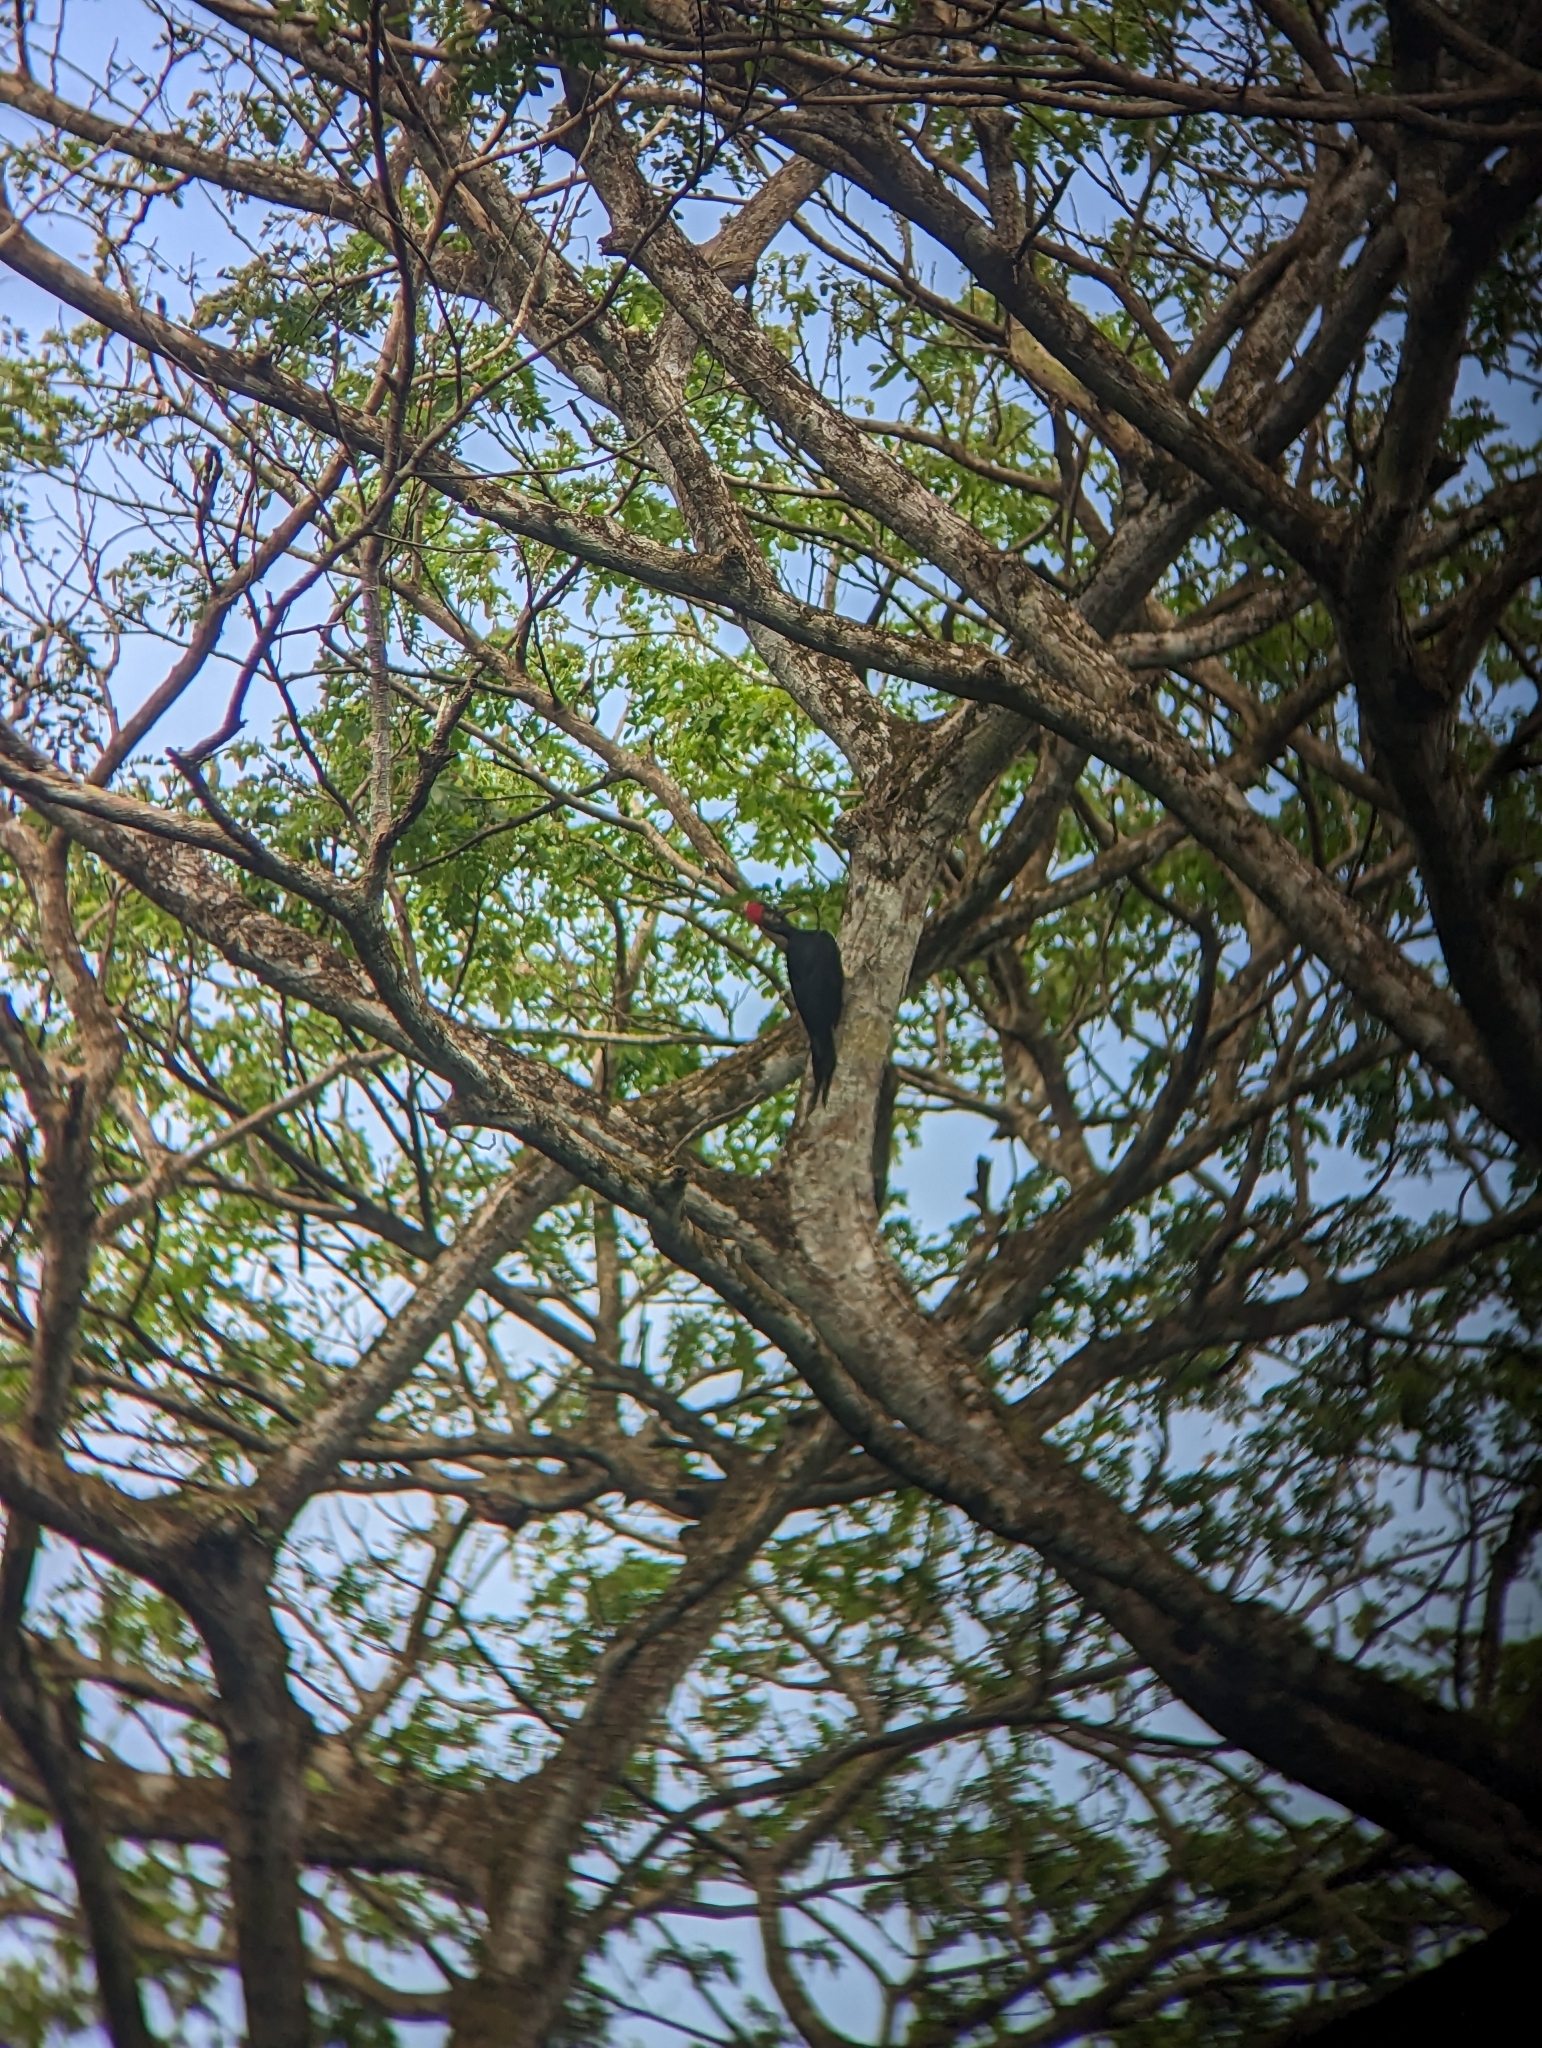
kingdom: Animalia
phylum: Chordata
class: Aves
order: Piciformes
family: Picidae
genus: Dryocopus
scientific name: Dryocopus javensis
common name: White-bellied woodpecker
